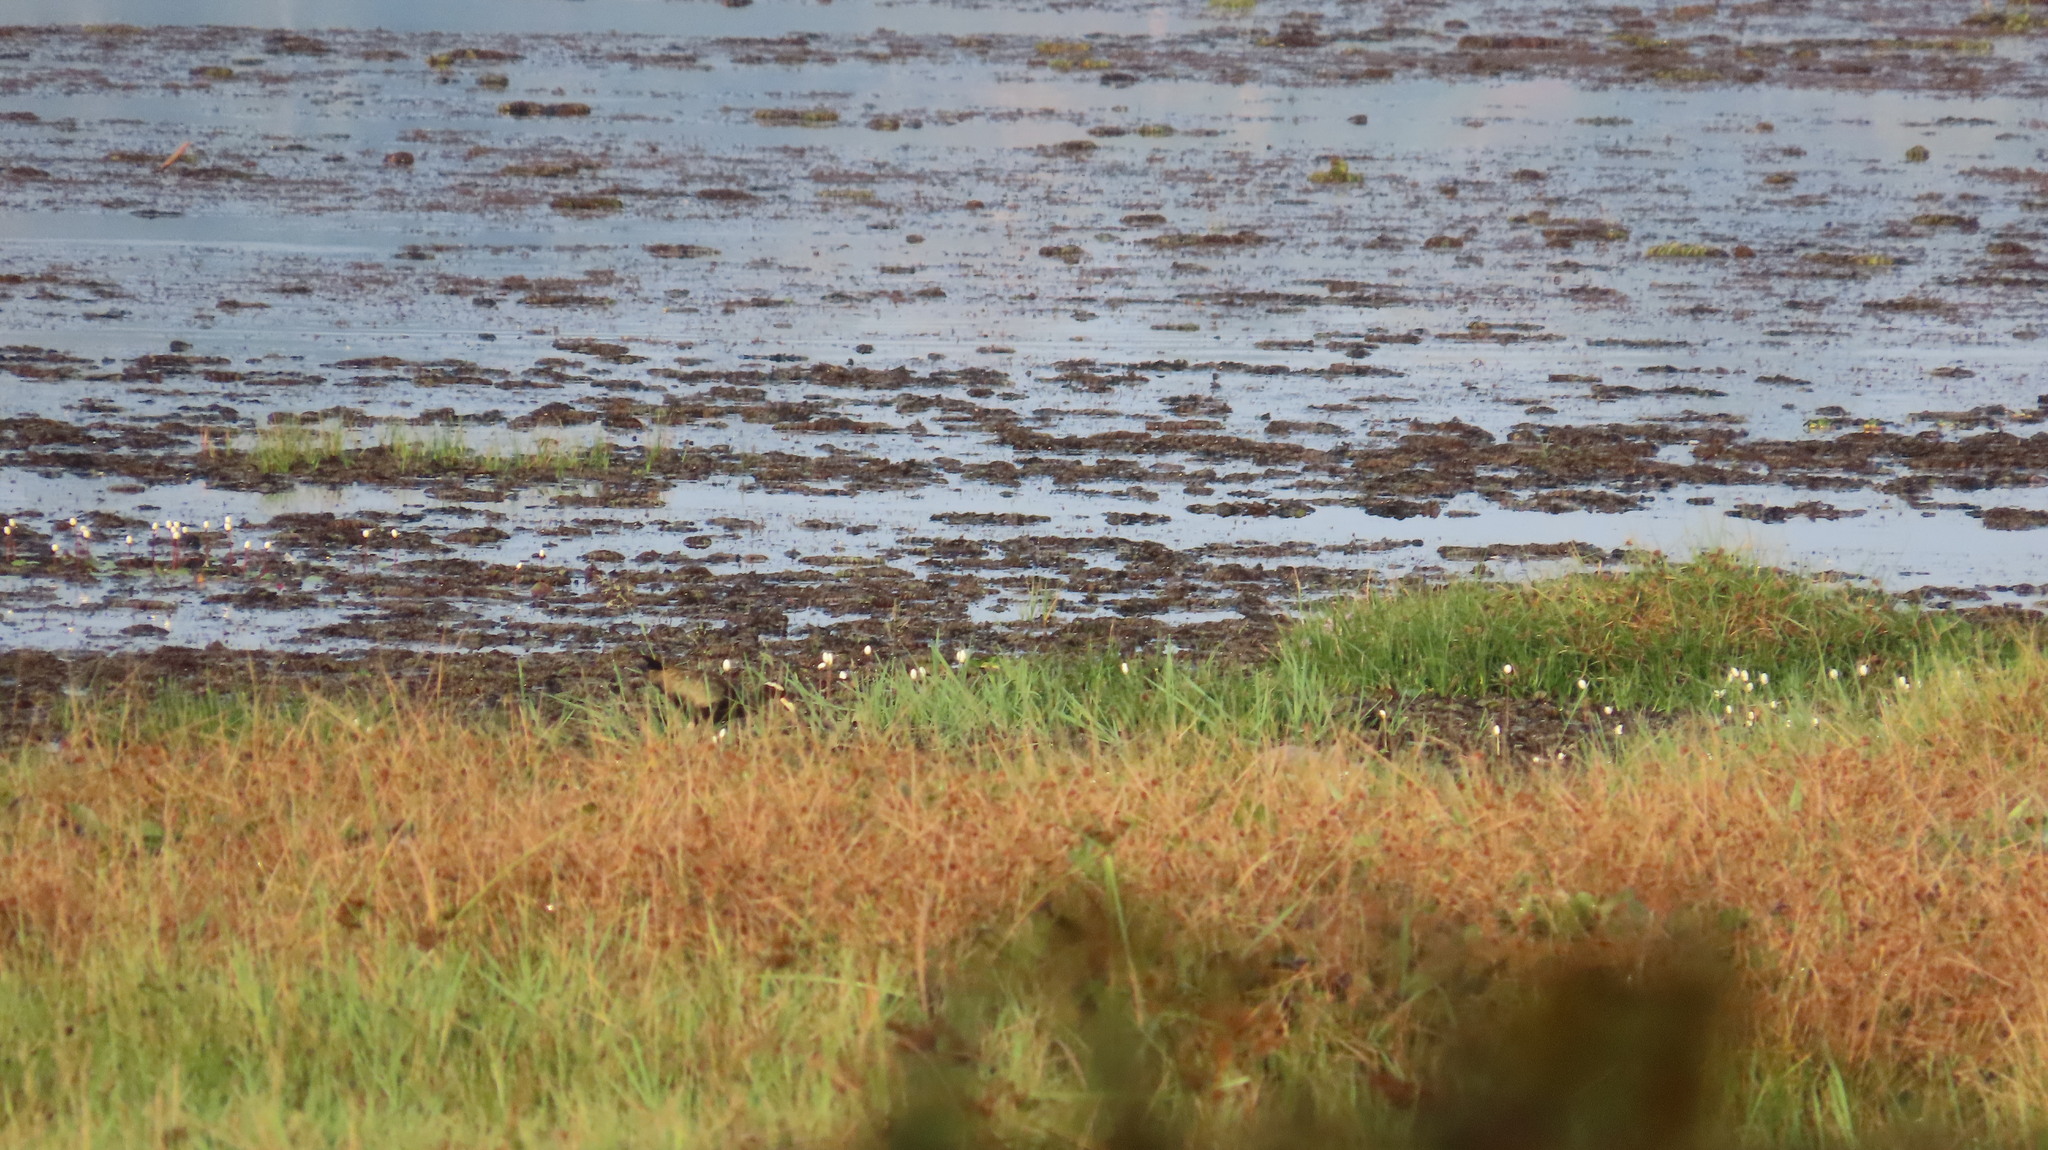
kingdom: Animalia
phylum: Chordata
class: Aves
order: Charadriiformes
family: Jacanidae
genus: Metopidius
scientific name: Metopidius indicus
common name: Bronze-winged jacana
